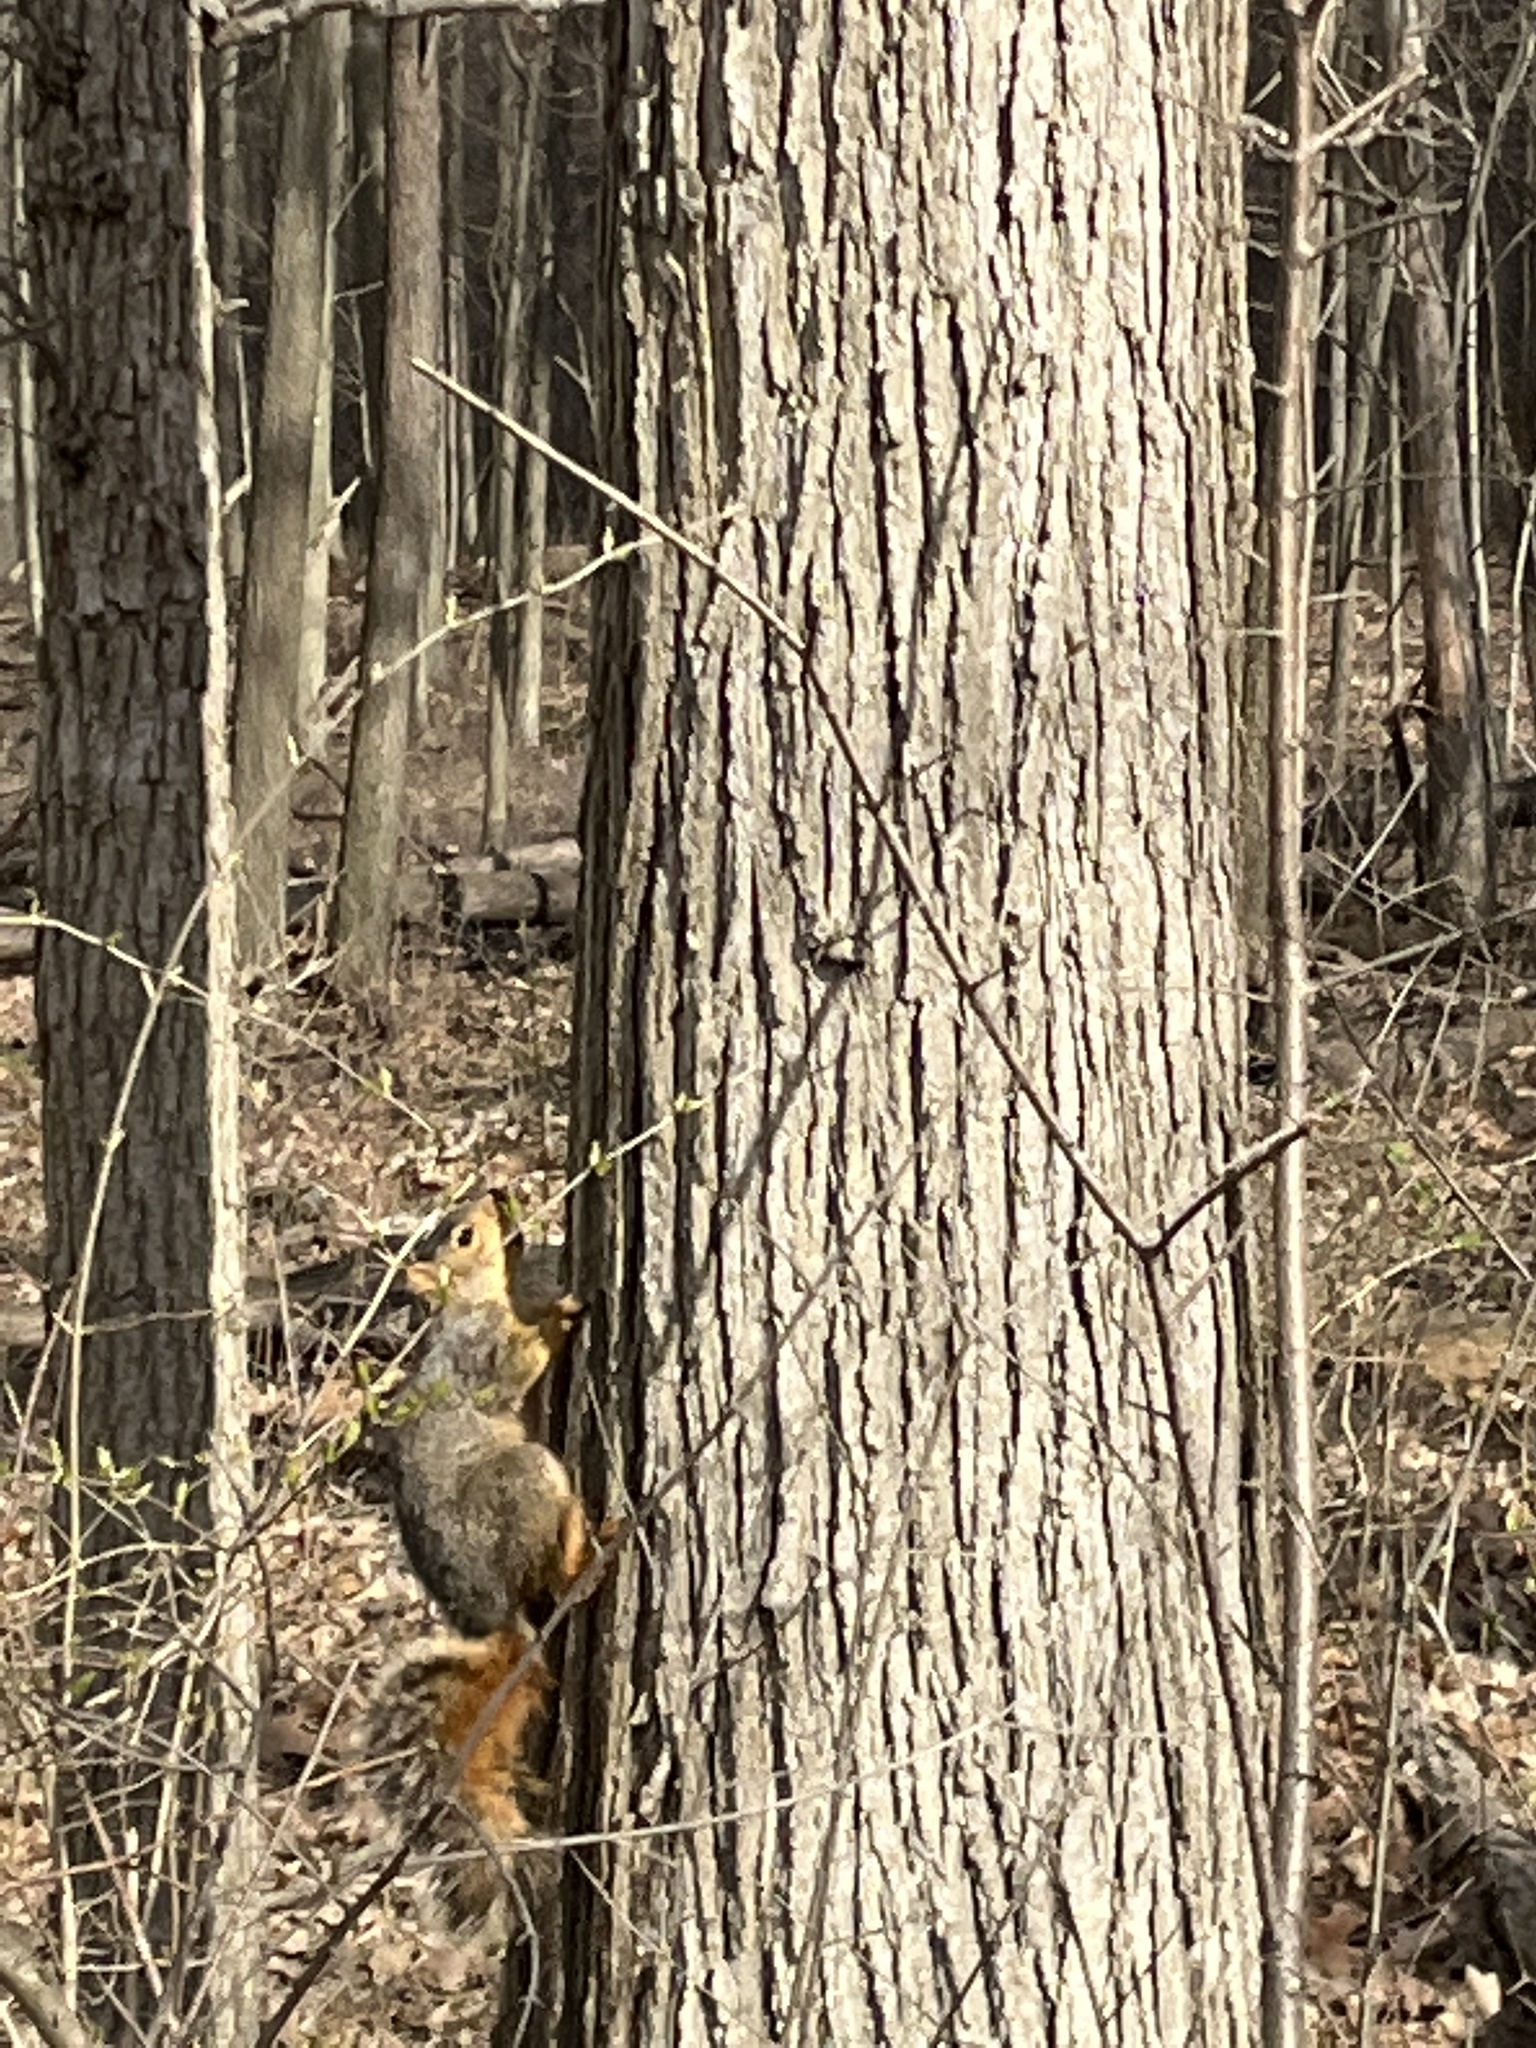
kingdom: Animalia
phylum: Chordata
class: Mammalia
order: Rodentia
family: Sciuridae
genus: Sciurus
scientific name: Sciurus niger
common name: Fox squirrel
